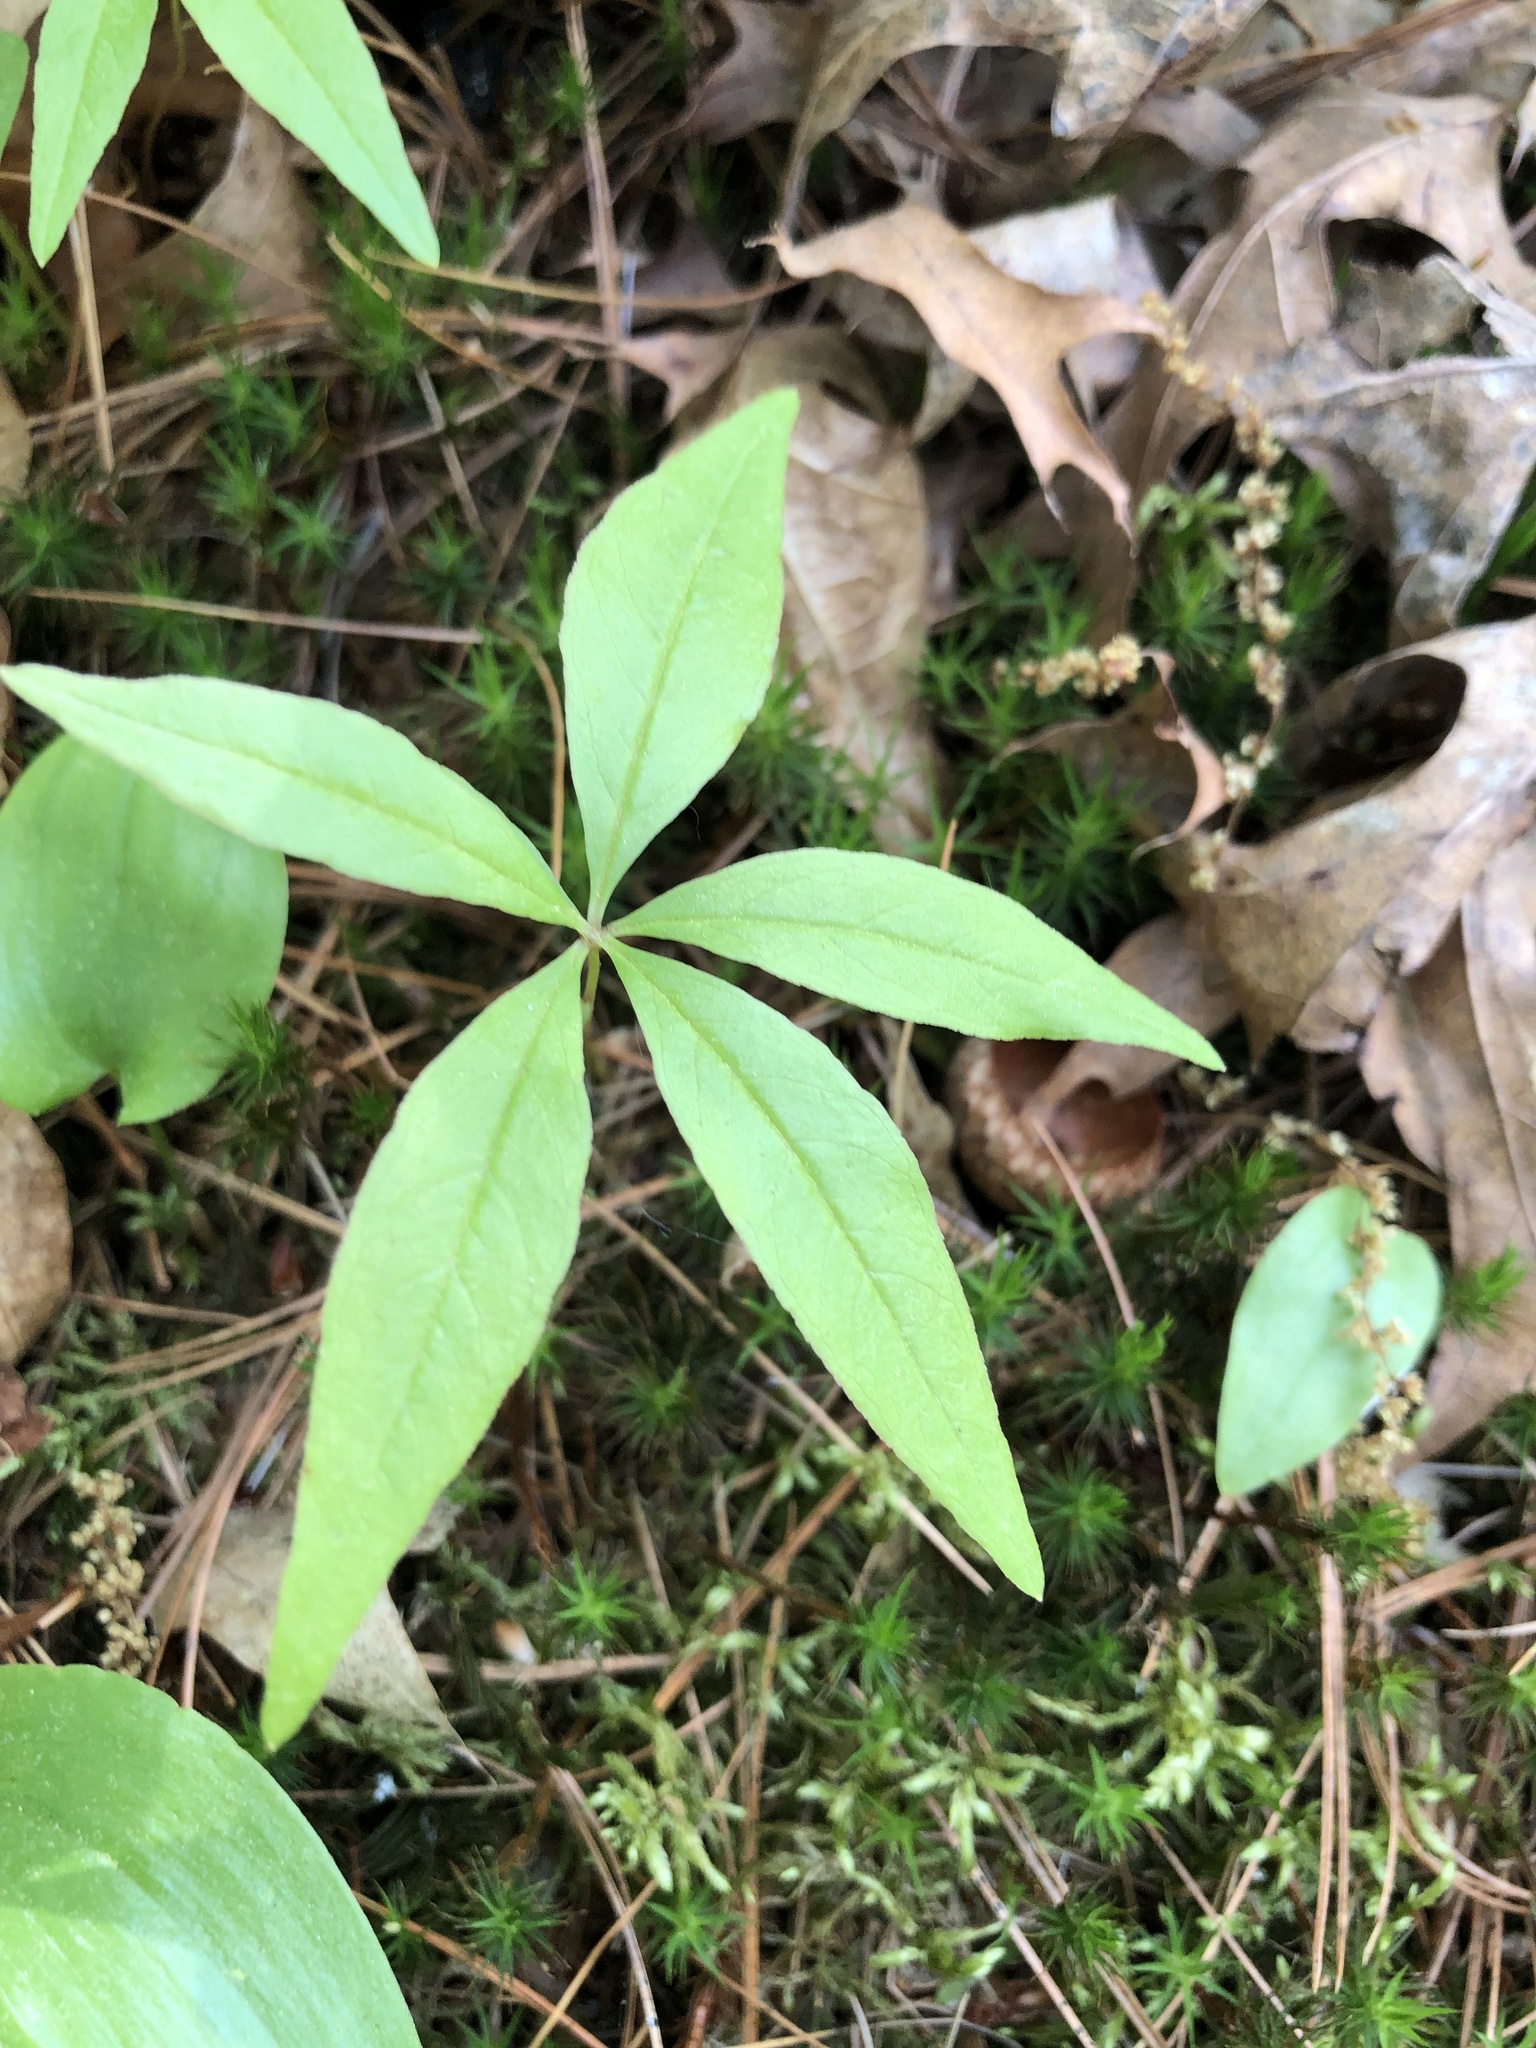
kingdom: Plantae
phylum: Tracheophyta
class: Magnoliopsida
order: Ericales
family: Primulaceae
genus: Lysimachia
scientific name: Lysimachia borealis
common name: American starflower
